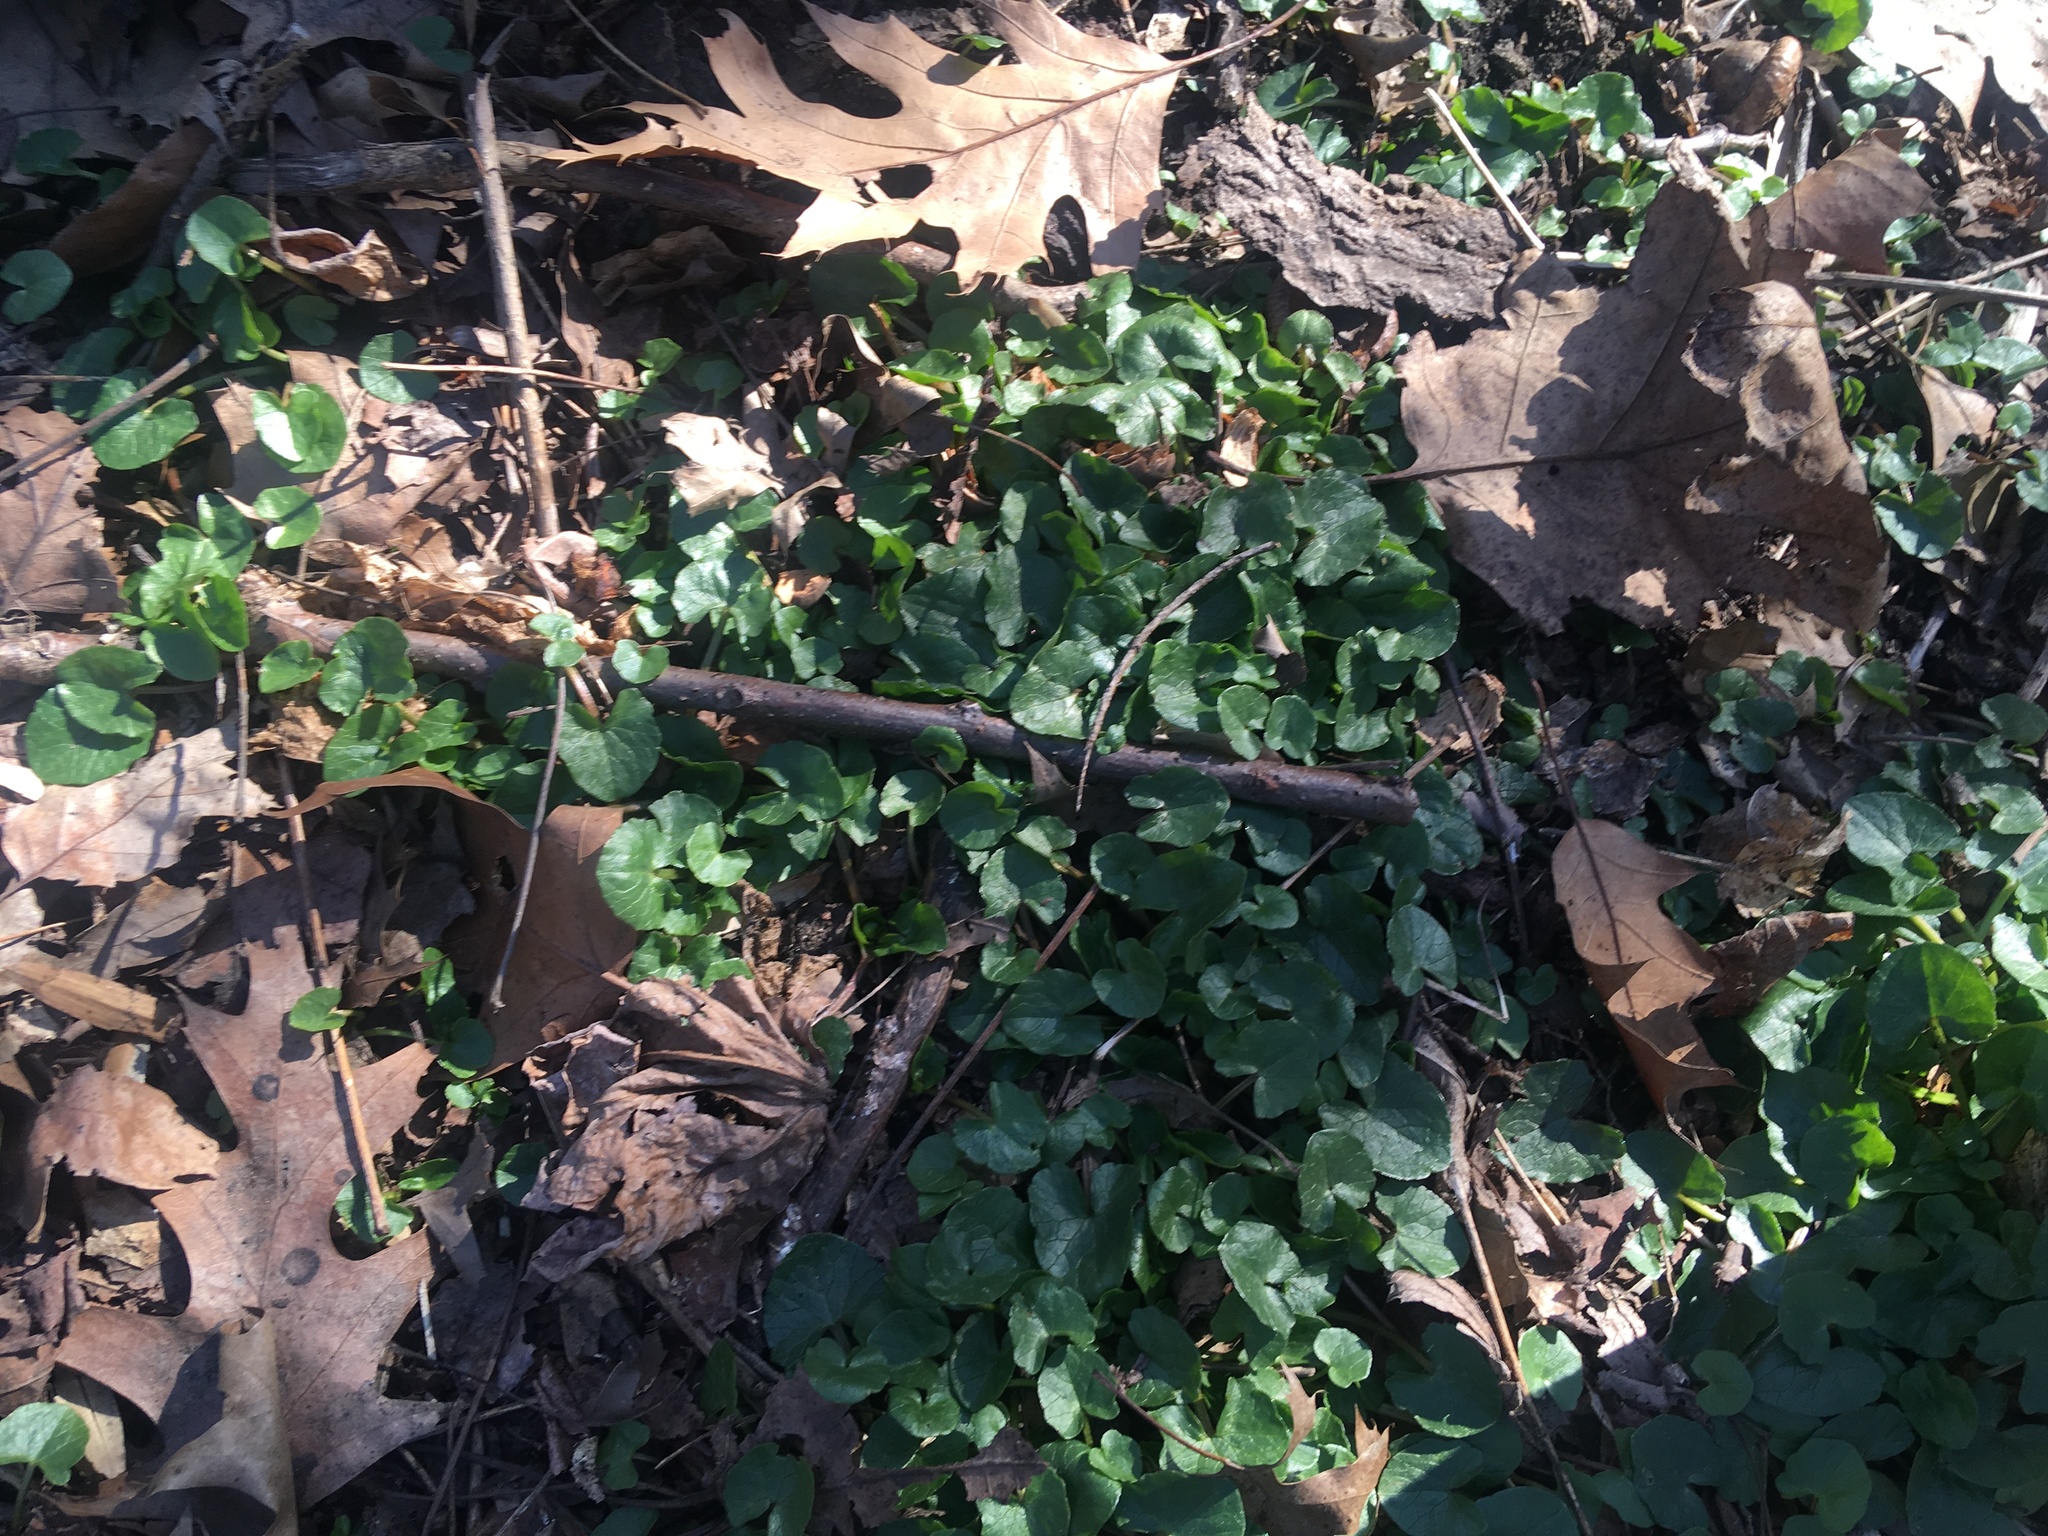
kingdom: Plantae
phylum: Tracheophyta
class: Magnoliopsida
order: Ranunculales
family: Ranunculaceae
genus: Ficaria
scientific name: Ficaria verna
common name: Lesser celandine
